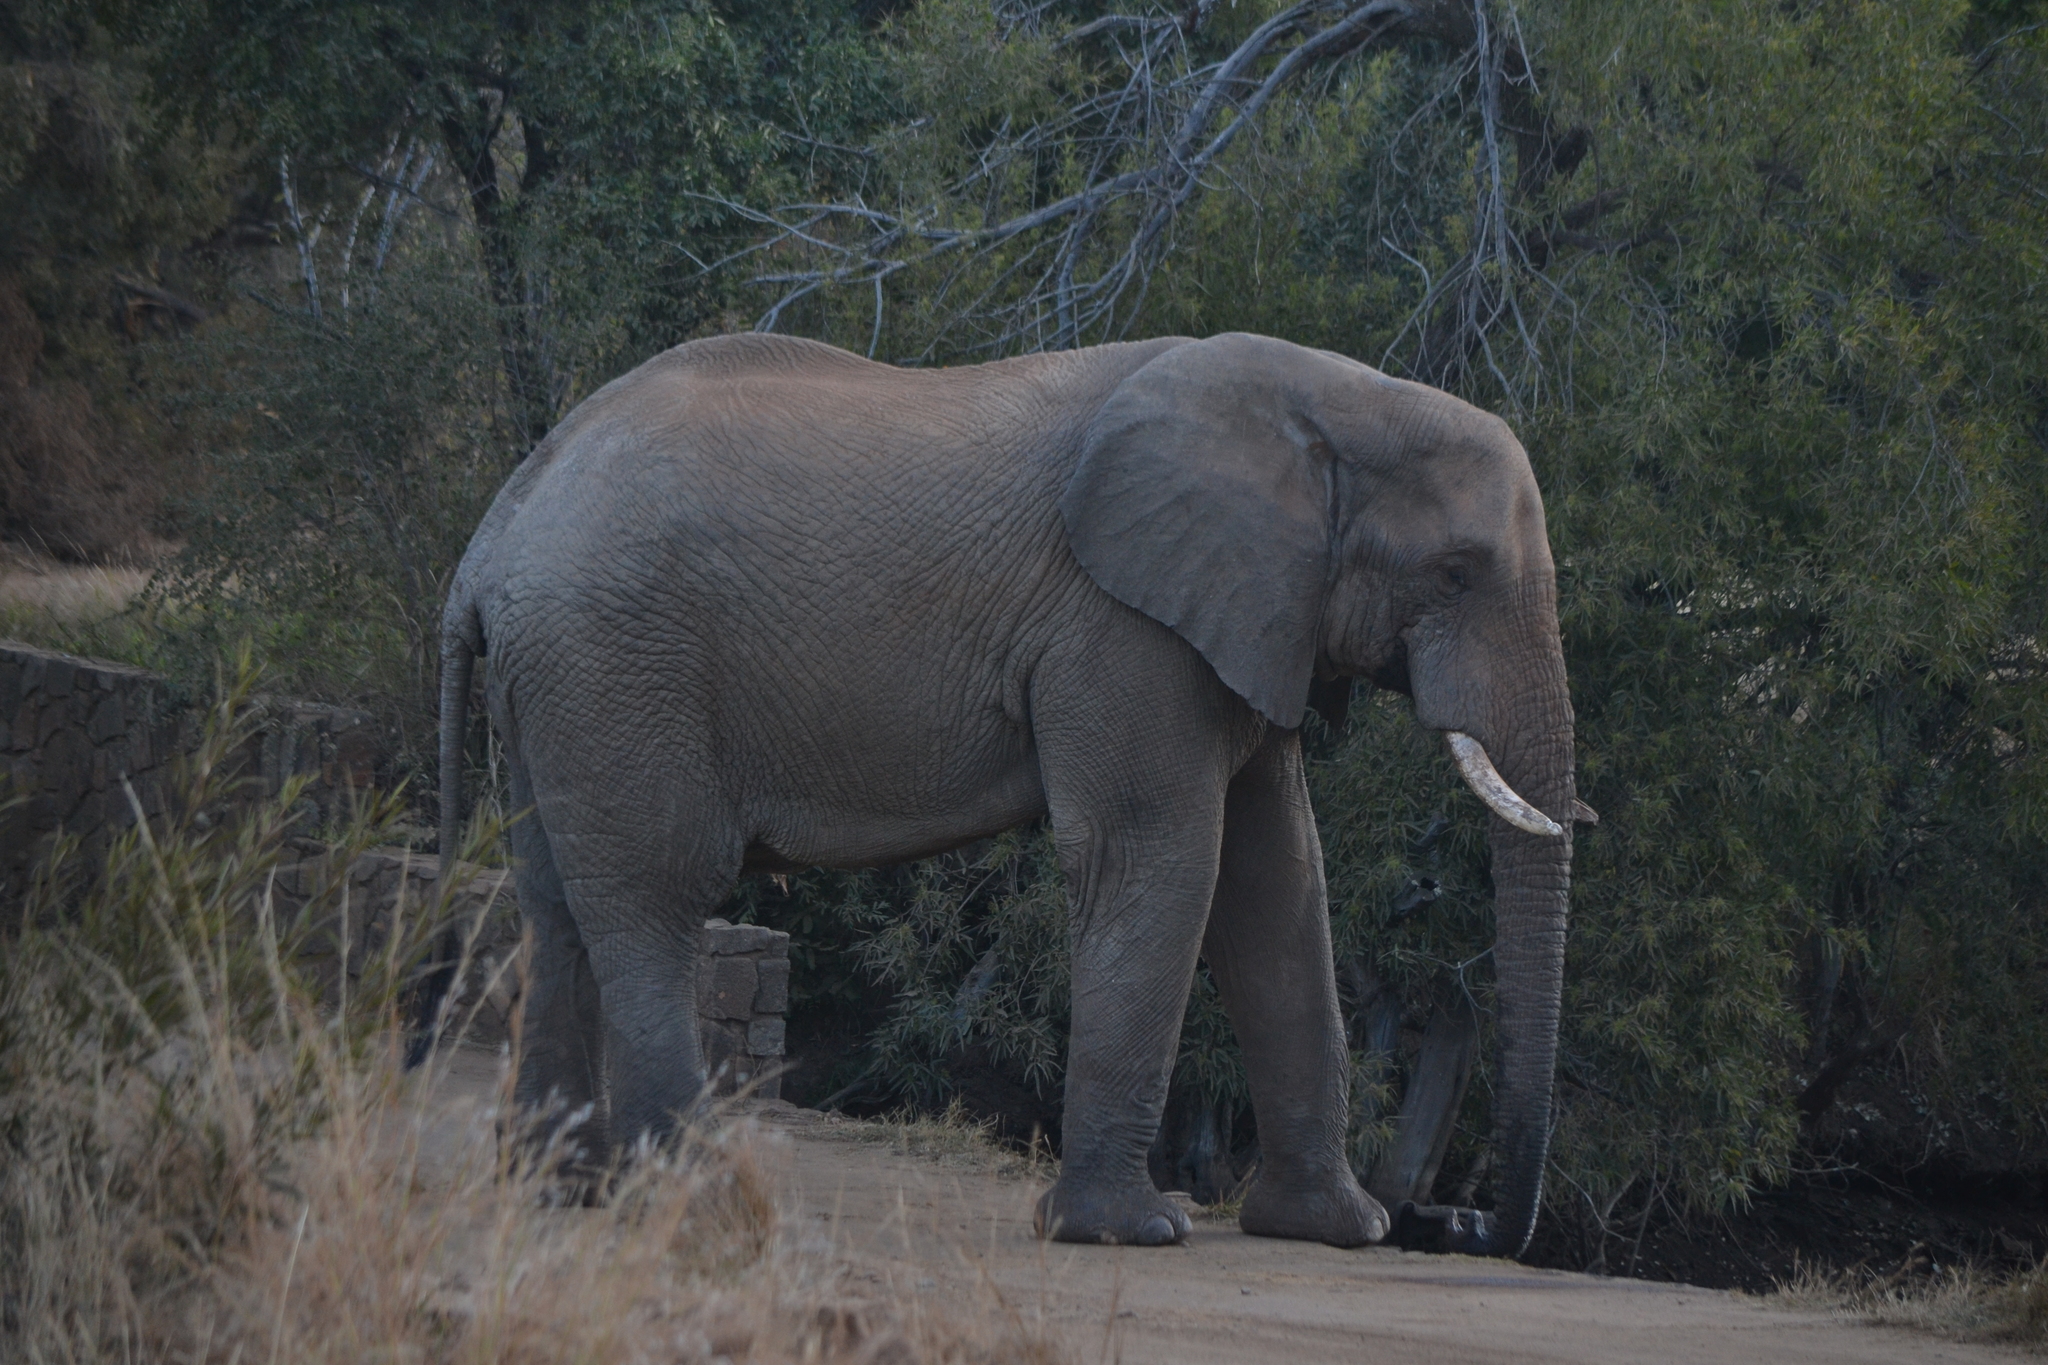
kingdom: Animalia
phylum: Chordata
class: Mammalia
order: Proboscidea
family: Elephantidae
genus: Loxodonta
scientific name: Loxodonta africana
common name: African elephant
